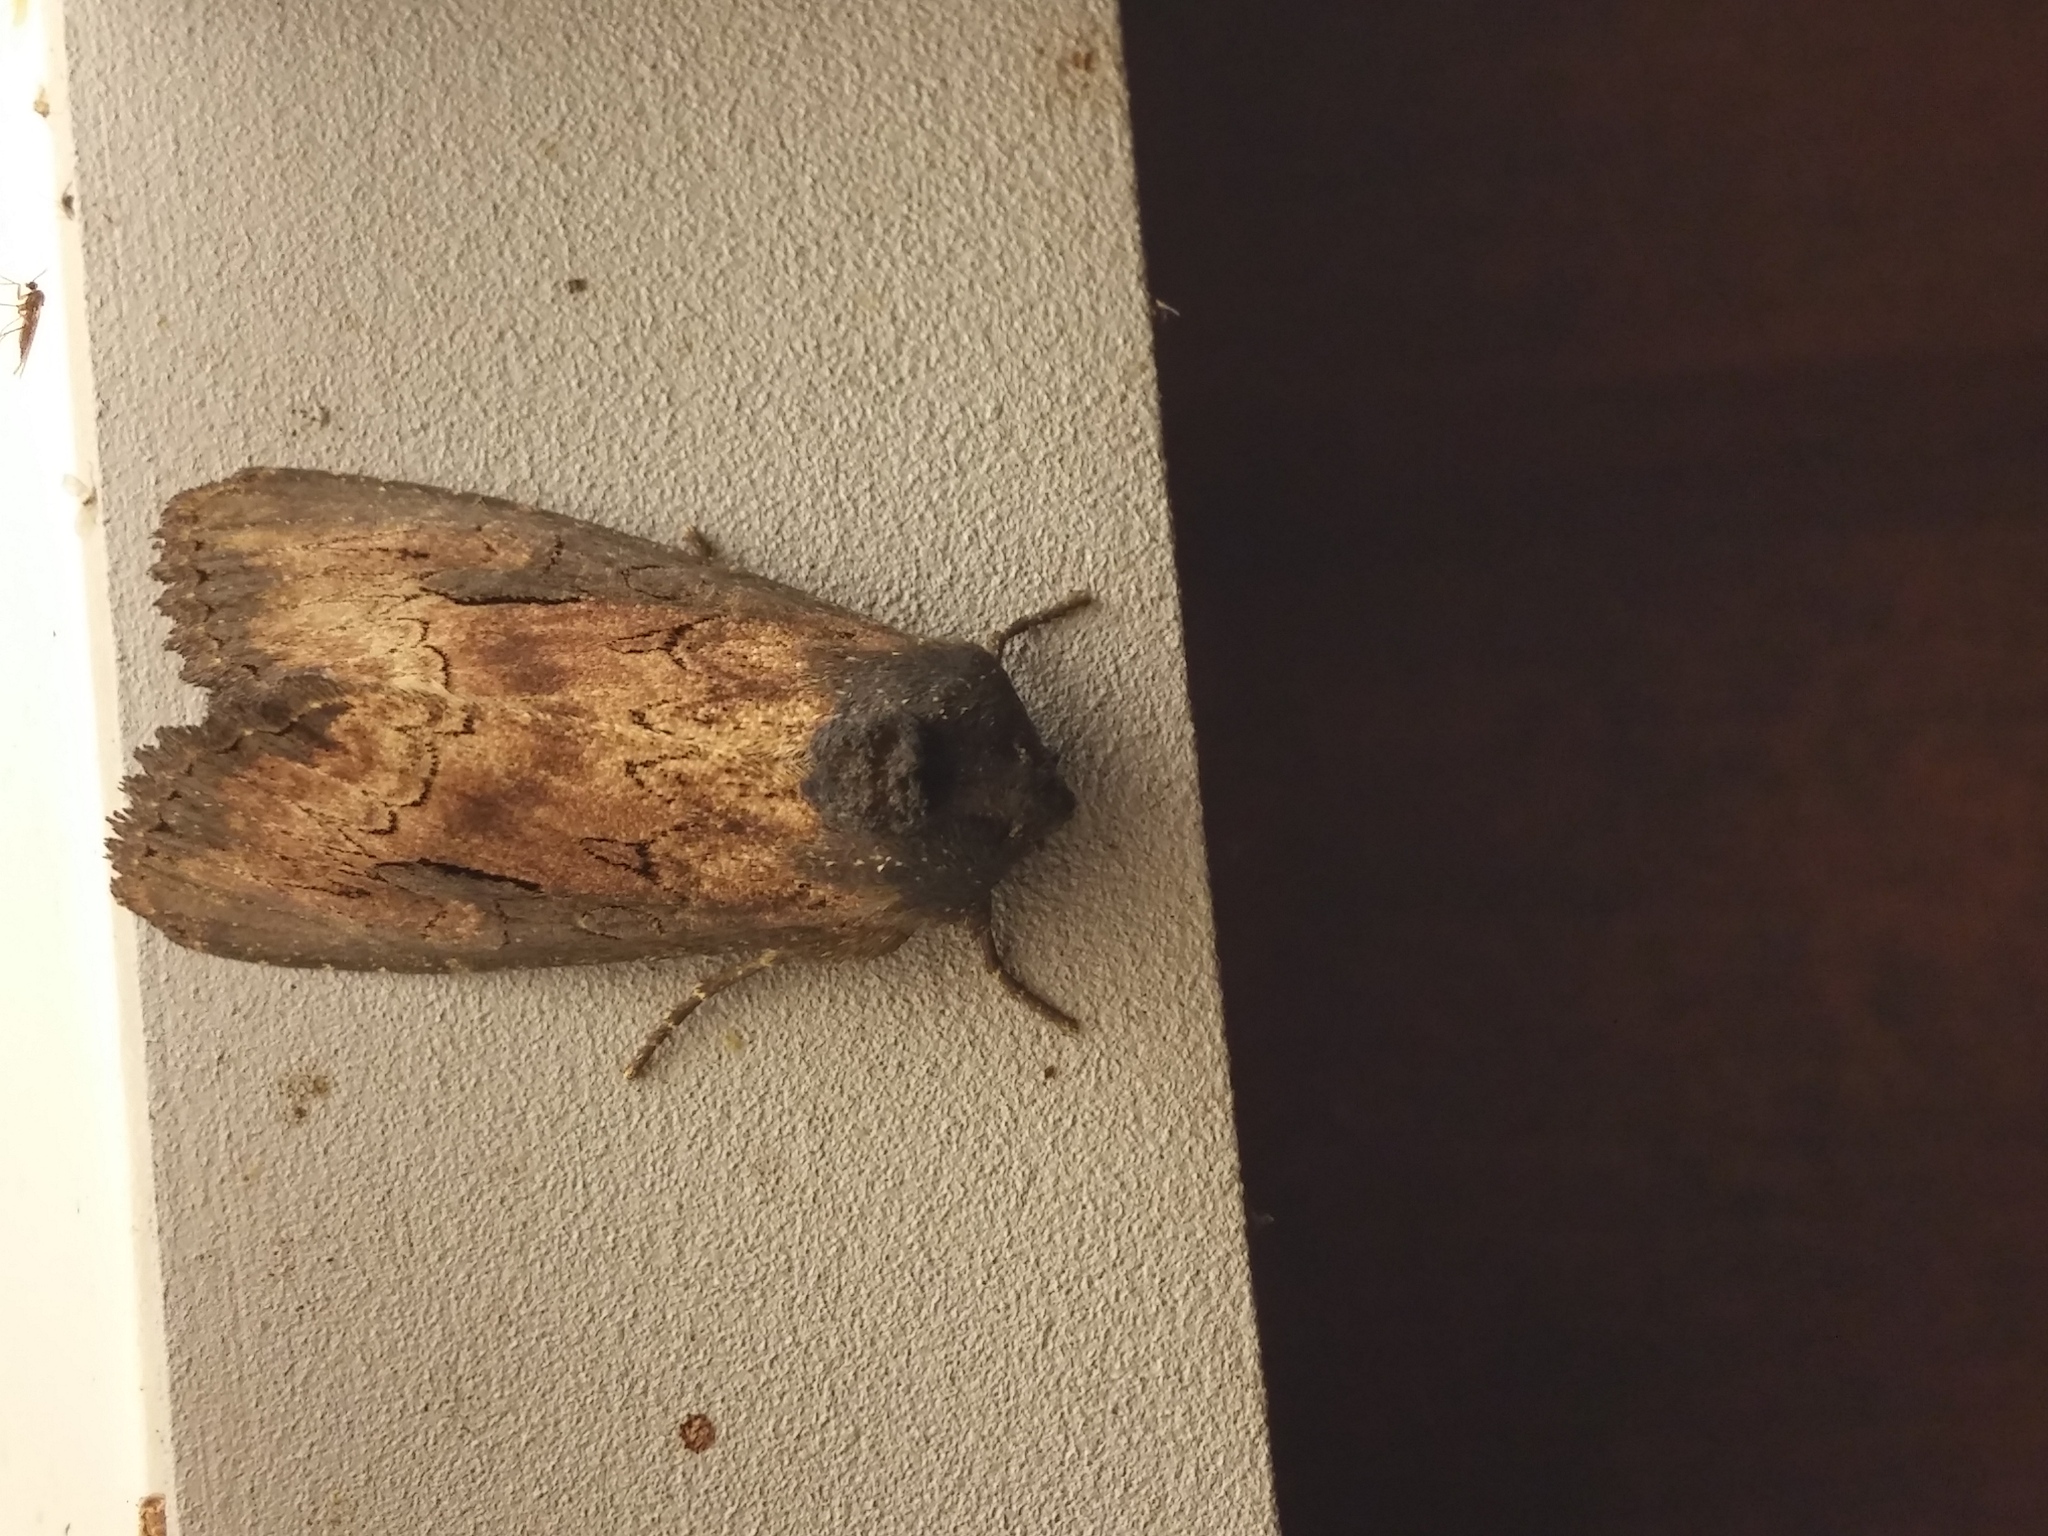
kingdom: Animalia
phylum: Arthropoda
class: Insecta
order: Lepidoptera
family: Noctuidae
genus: Macronoctua
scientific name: Macronoctua onusta
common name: Iris borer
